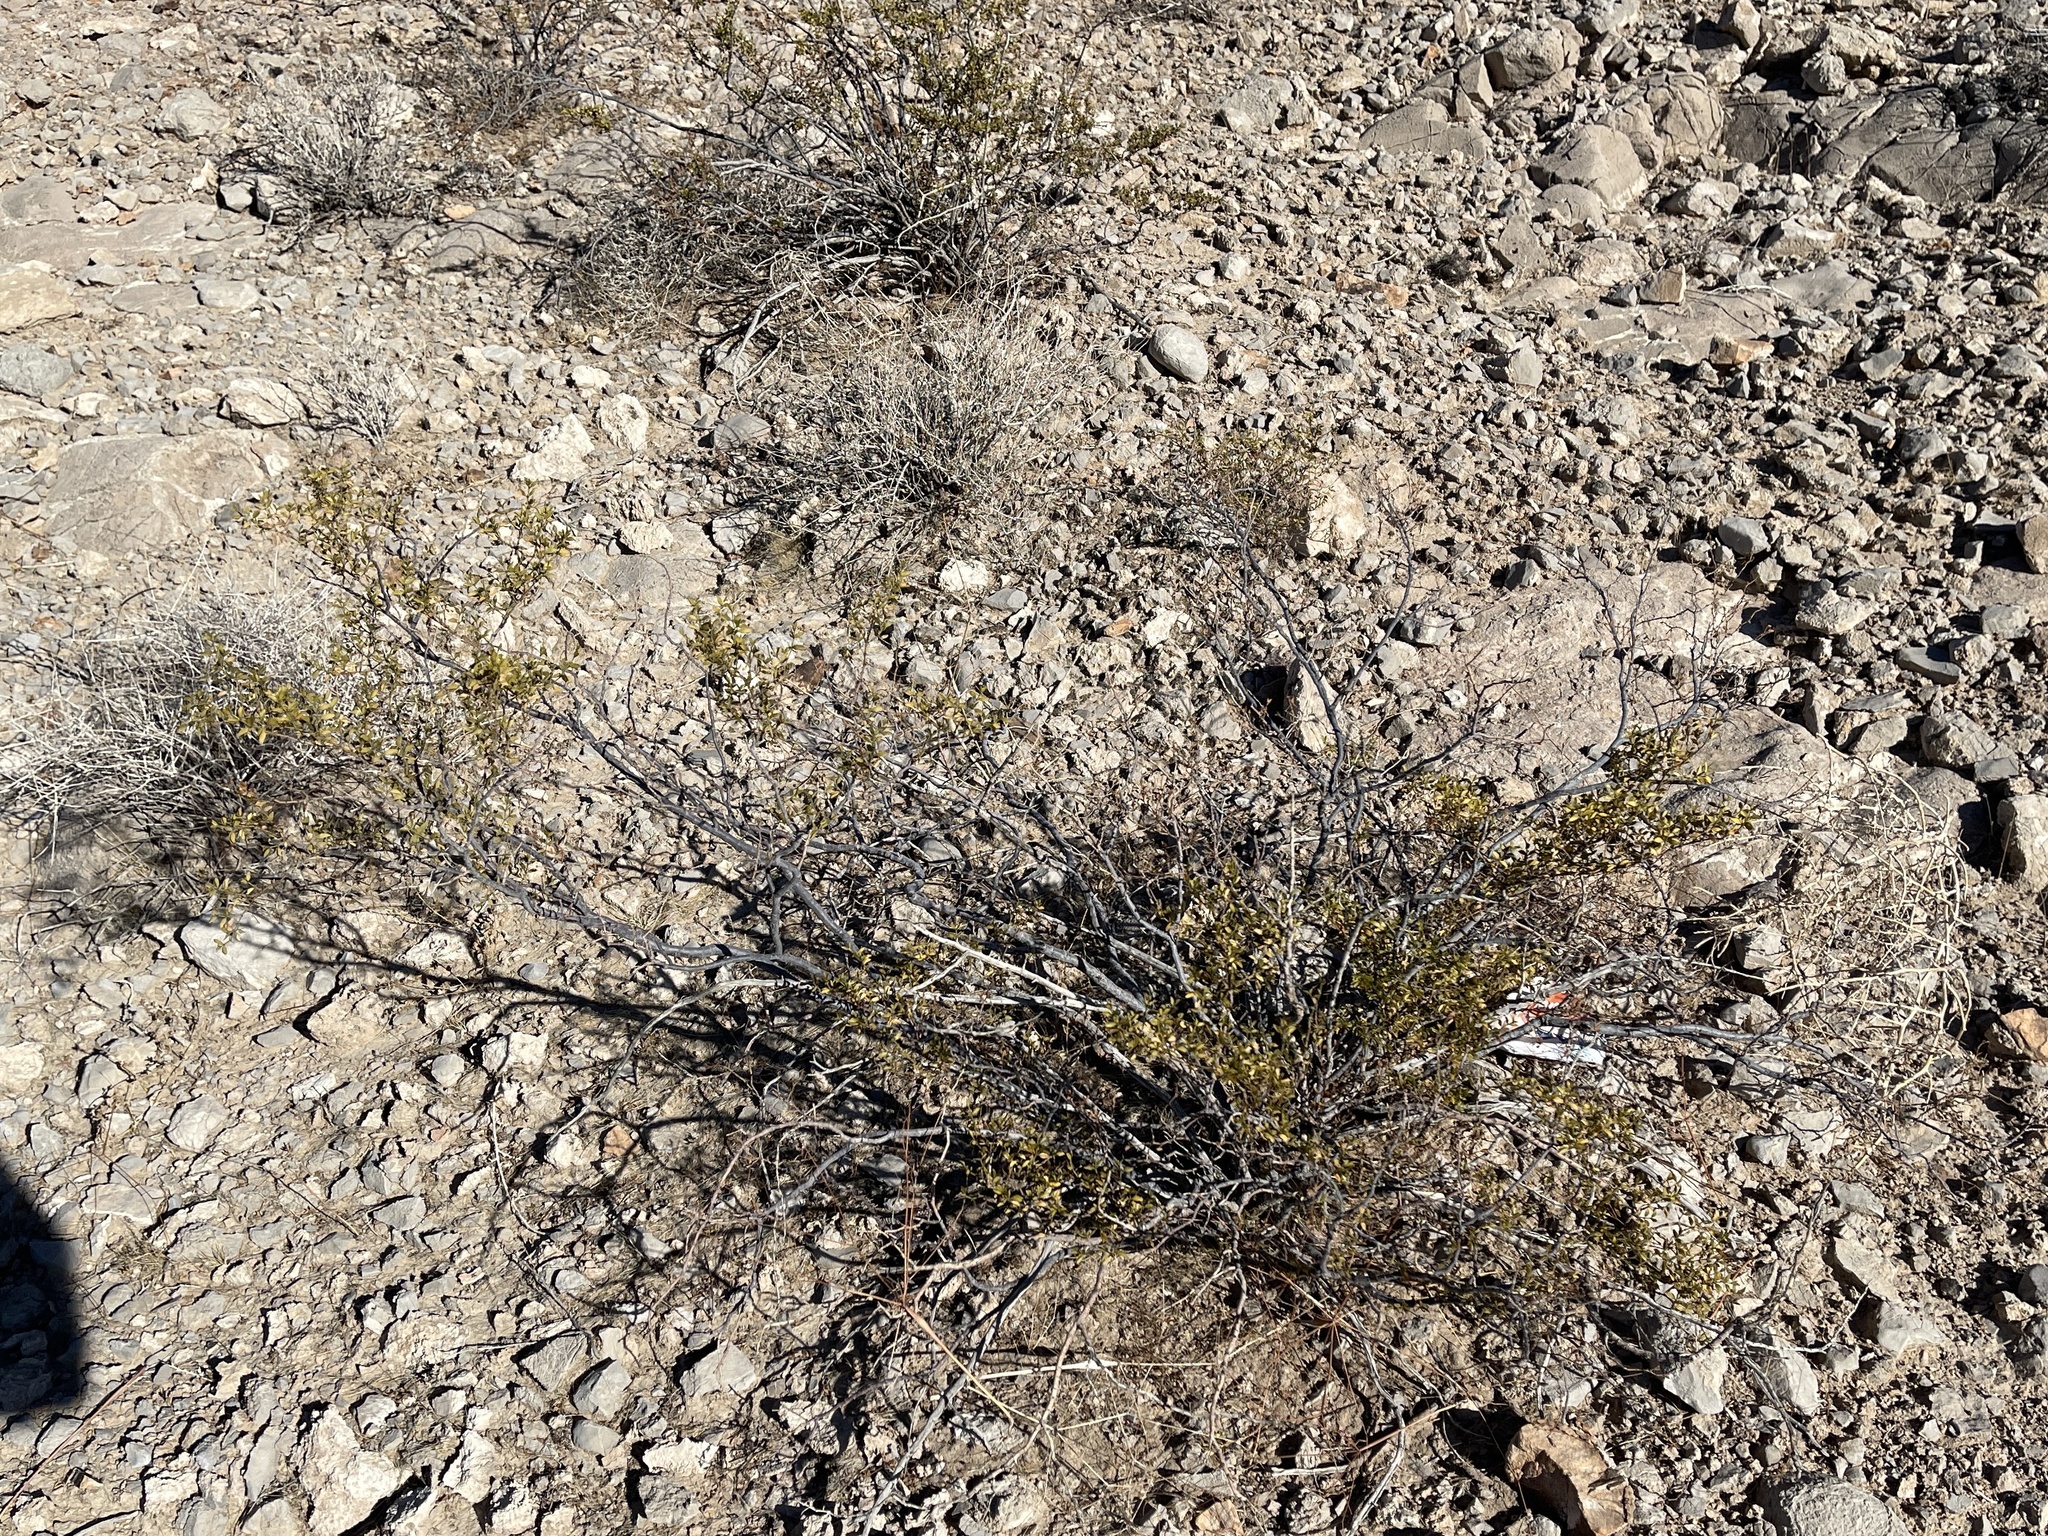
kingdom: Plantae
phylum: Tracheophyta
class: Magnoliopsida
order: Zygophyllales
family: Zygophyllaceae
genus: Larrea
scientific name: Larrea tridentata
